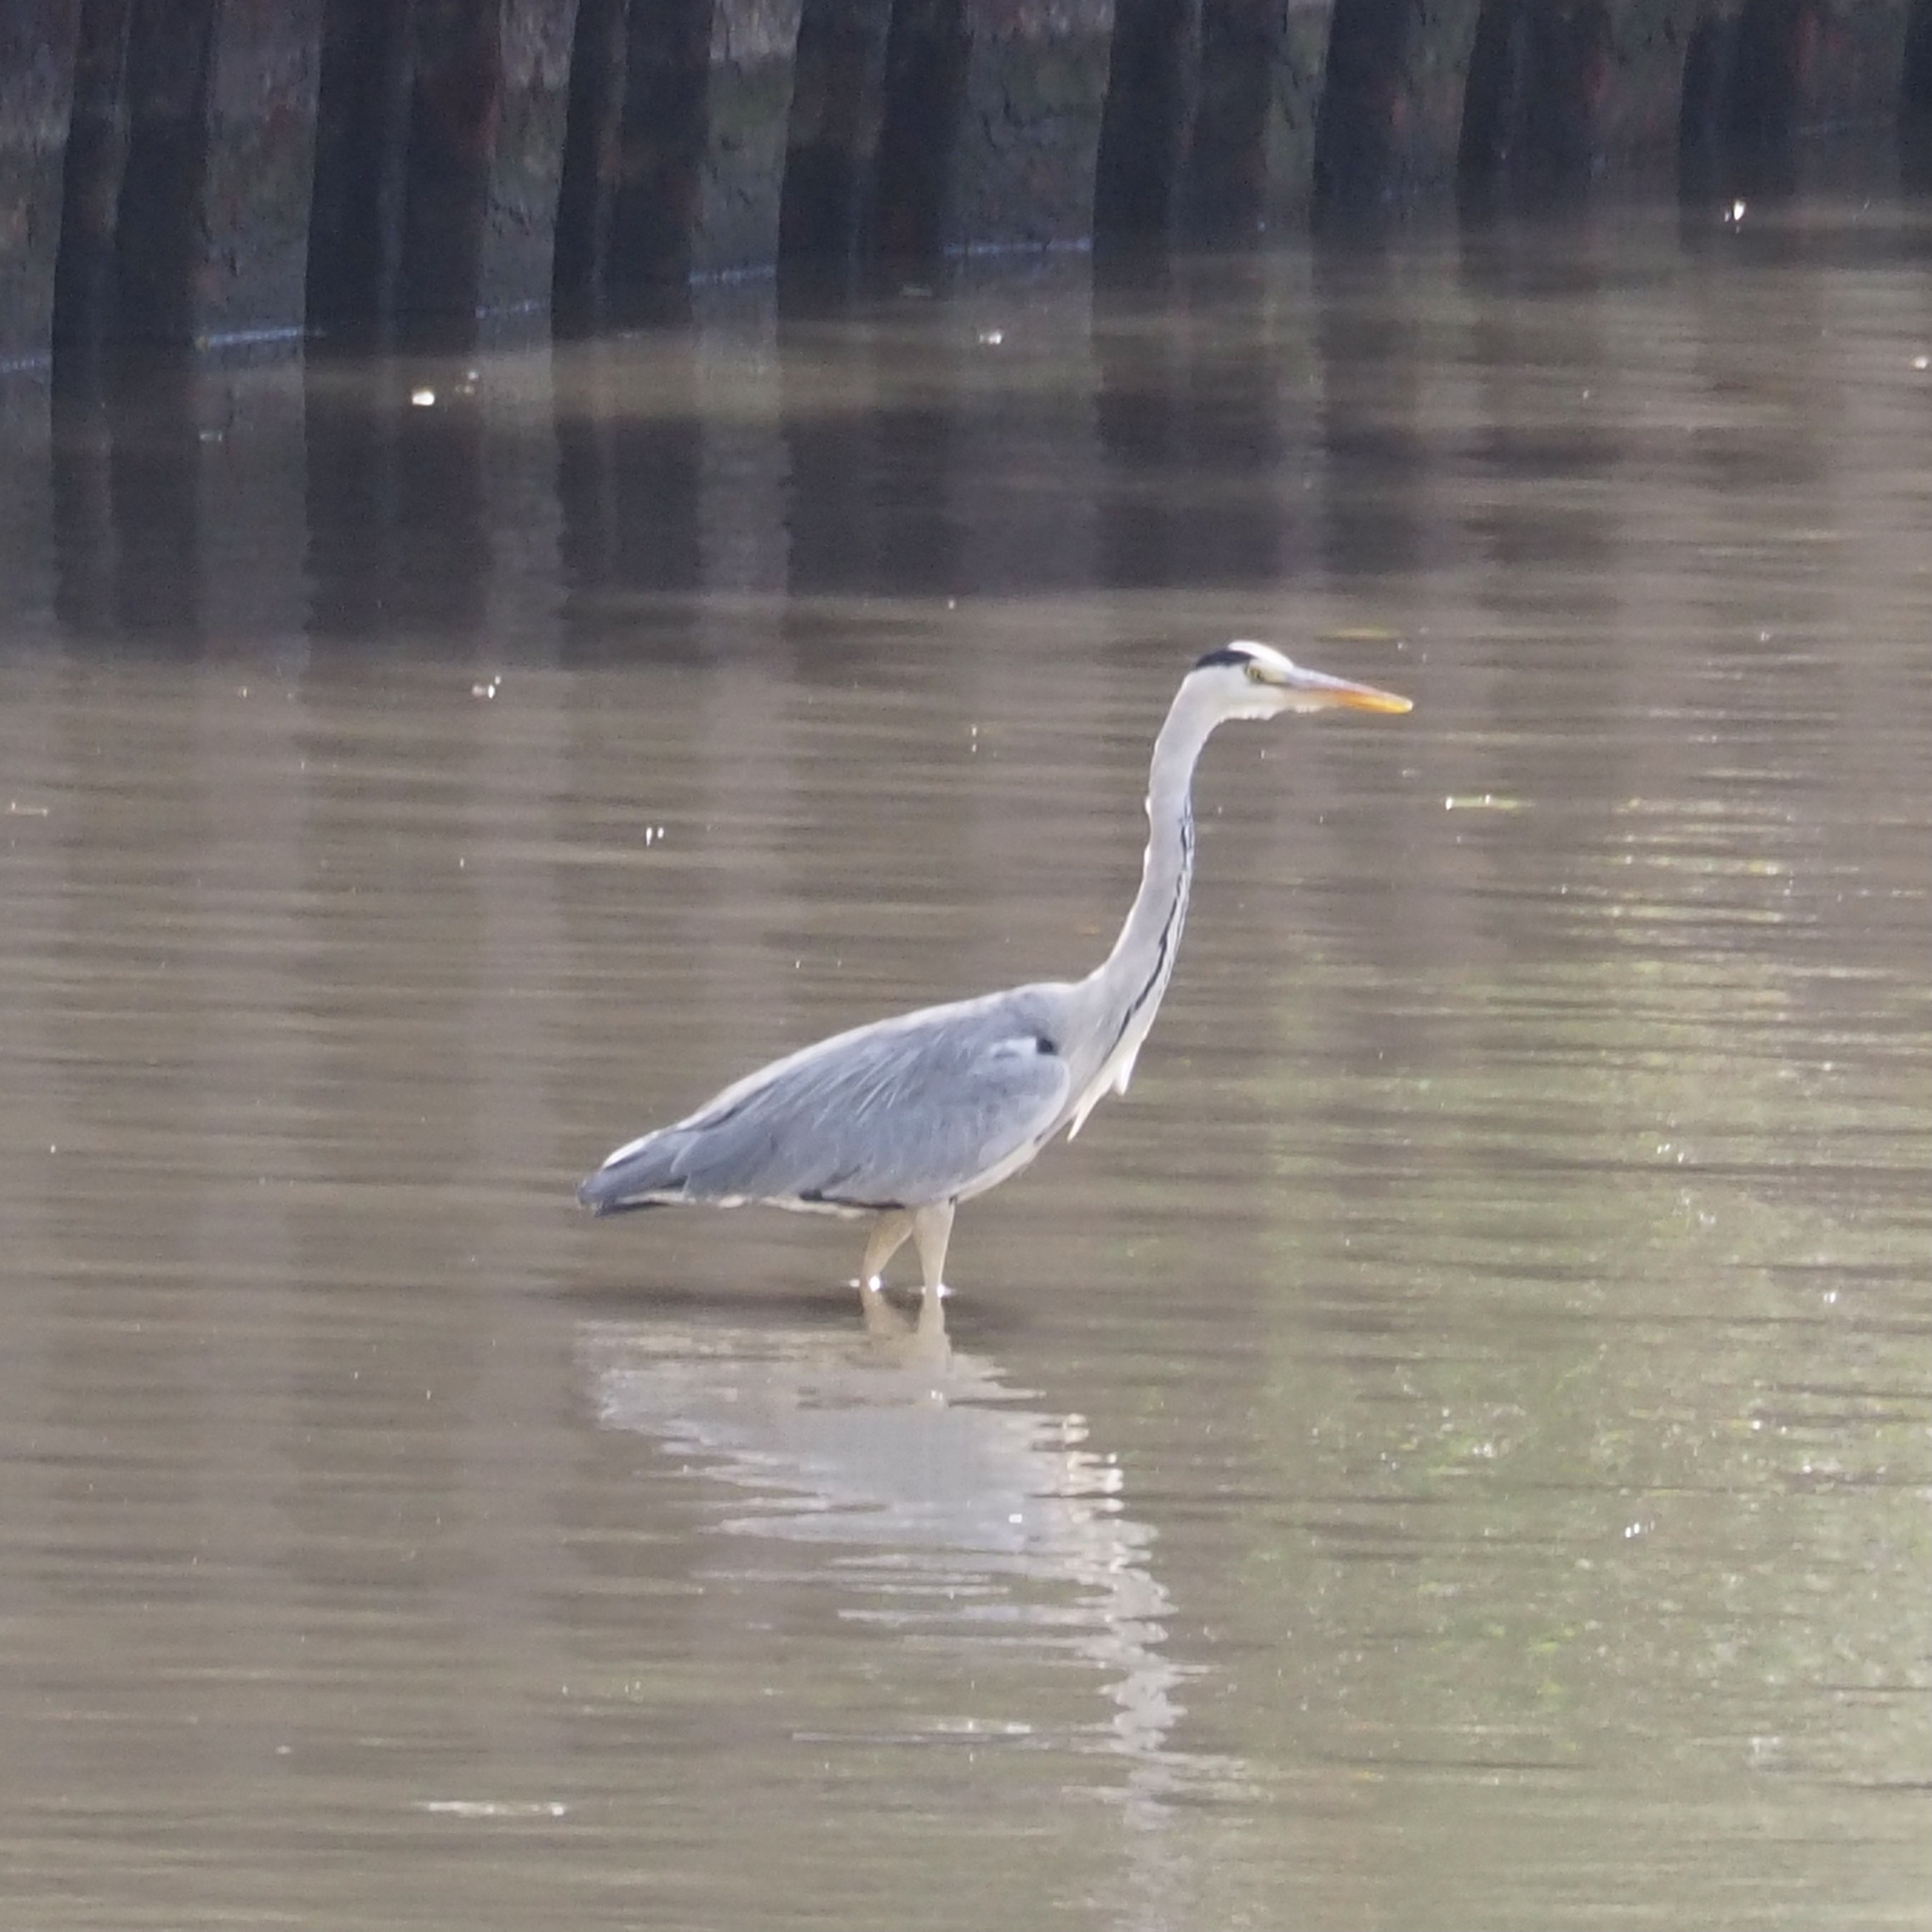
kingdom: Animalia
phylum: Chordata
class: Aves
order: Pelecaniformes
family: Ardeidae
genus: Ardea
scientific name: Ardea cinerea
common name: Grey heron
